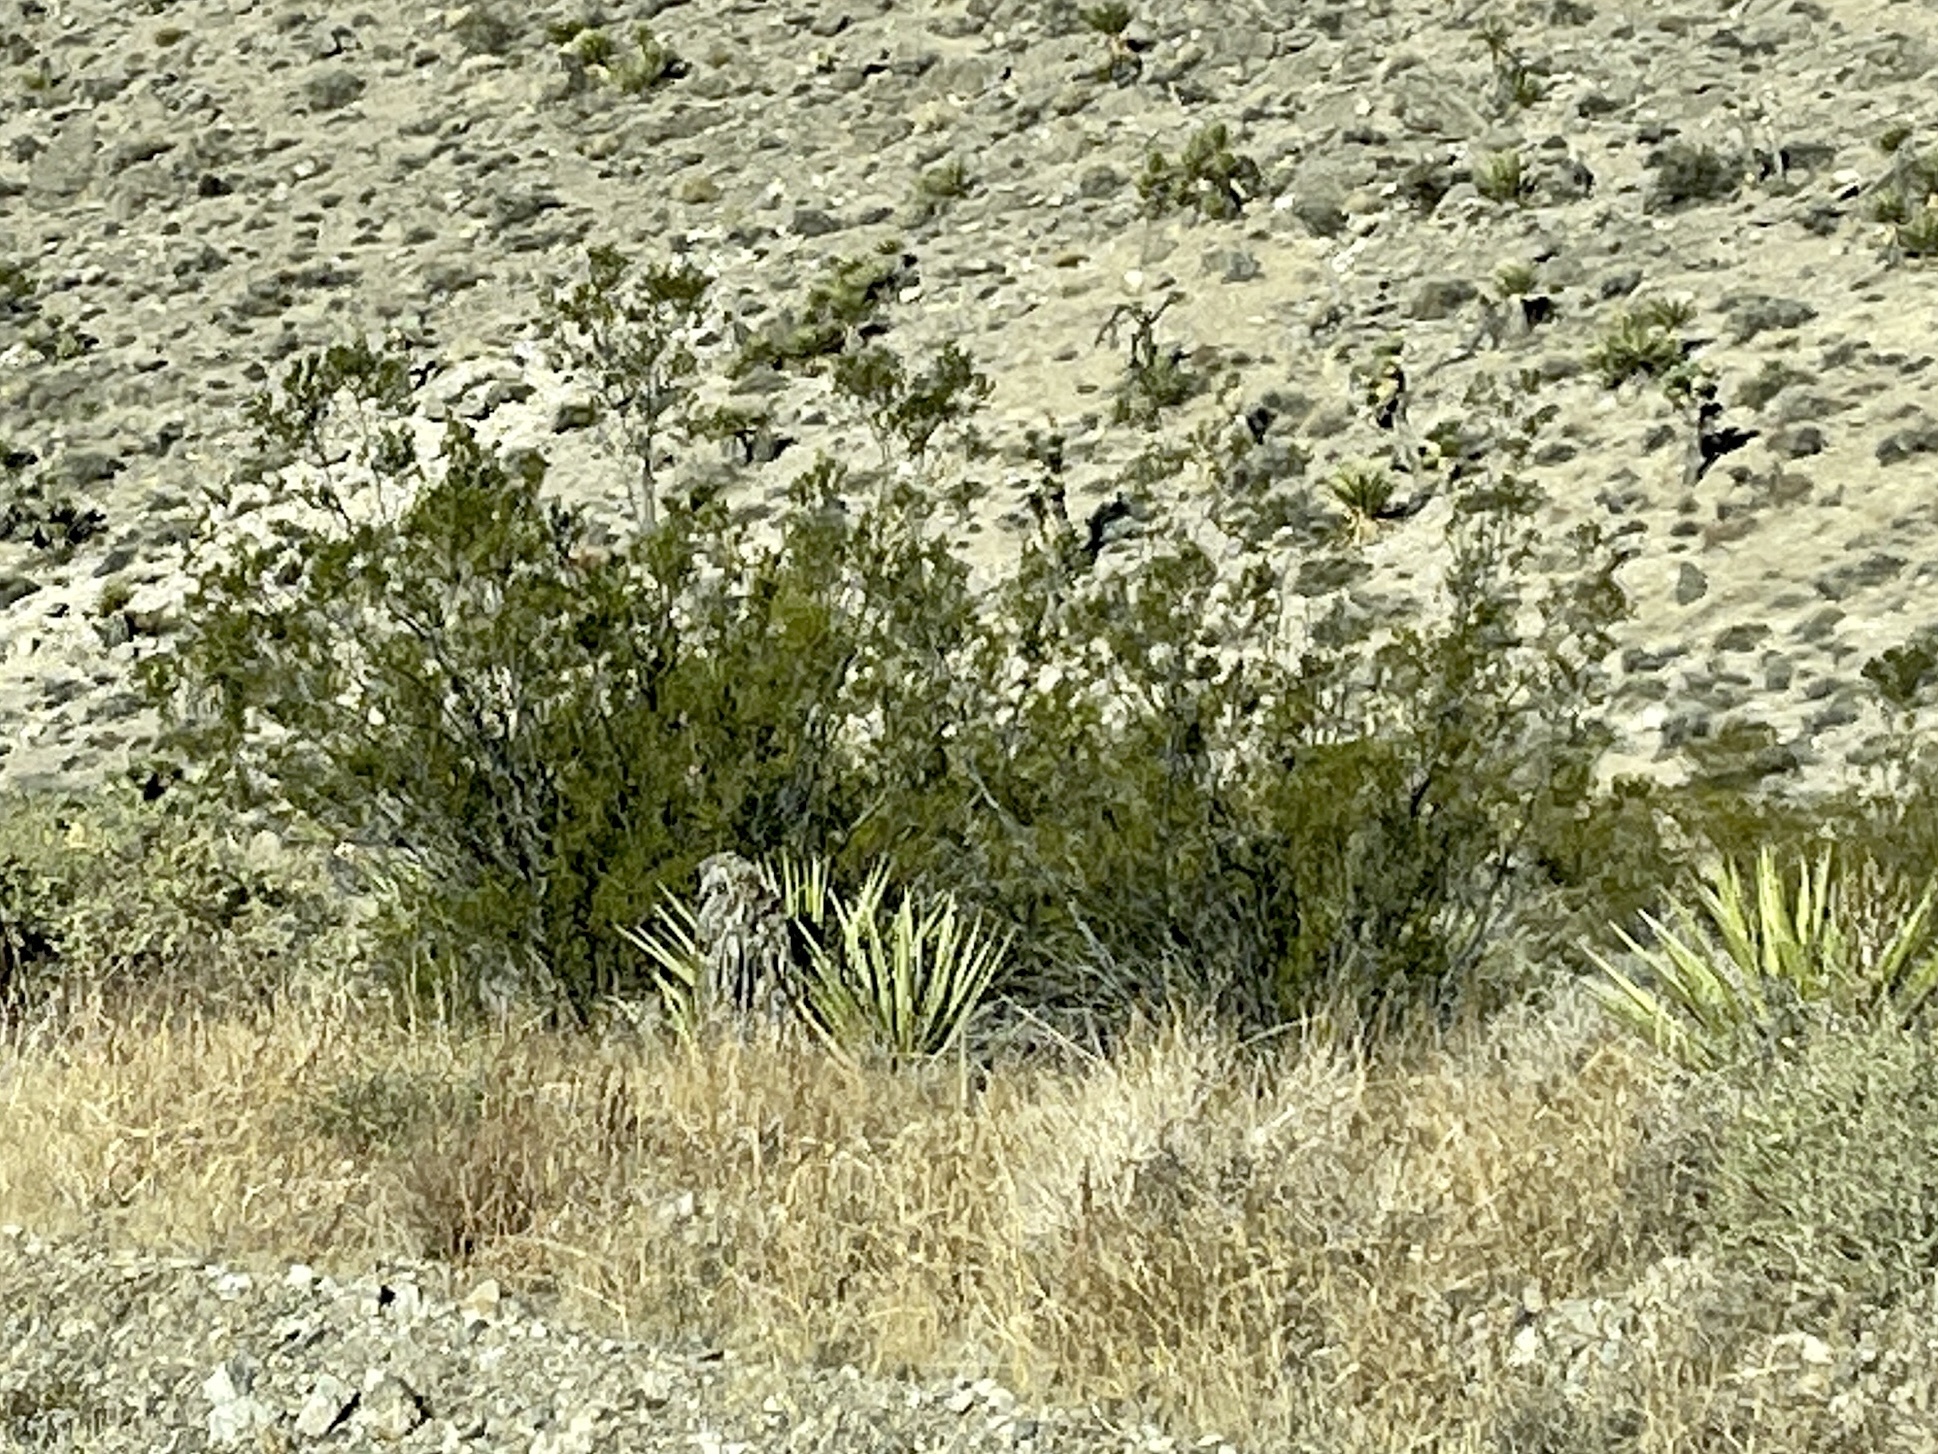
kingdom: Plantae
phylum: Tracheophyta
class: Magnoliopsida
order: Zygophyllales
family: Zygophyllaceae
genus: Larrea
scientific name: Larrea tridentata
